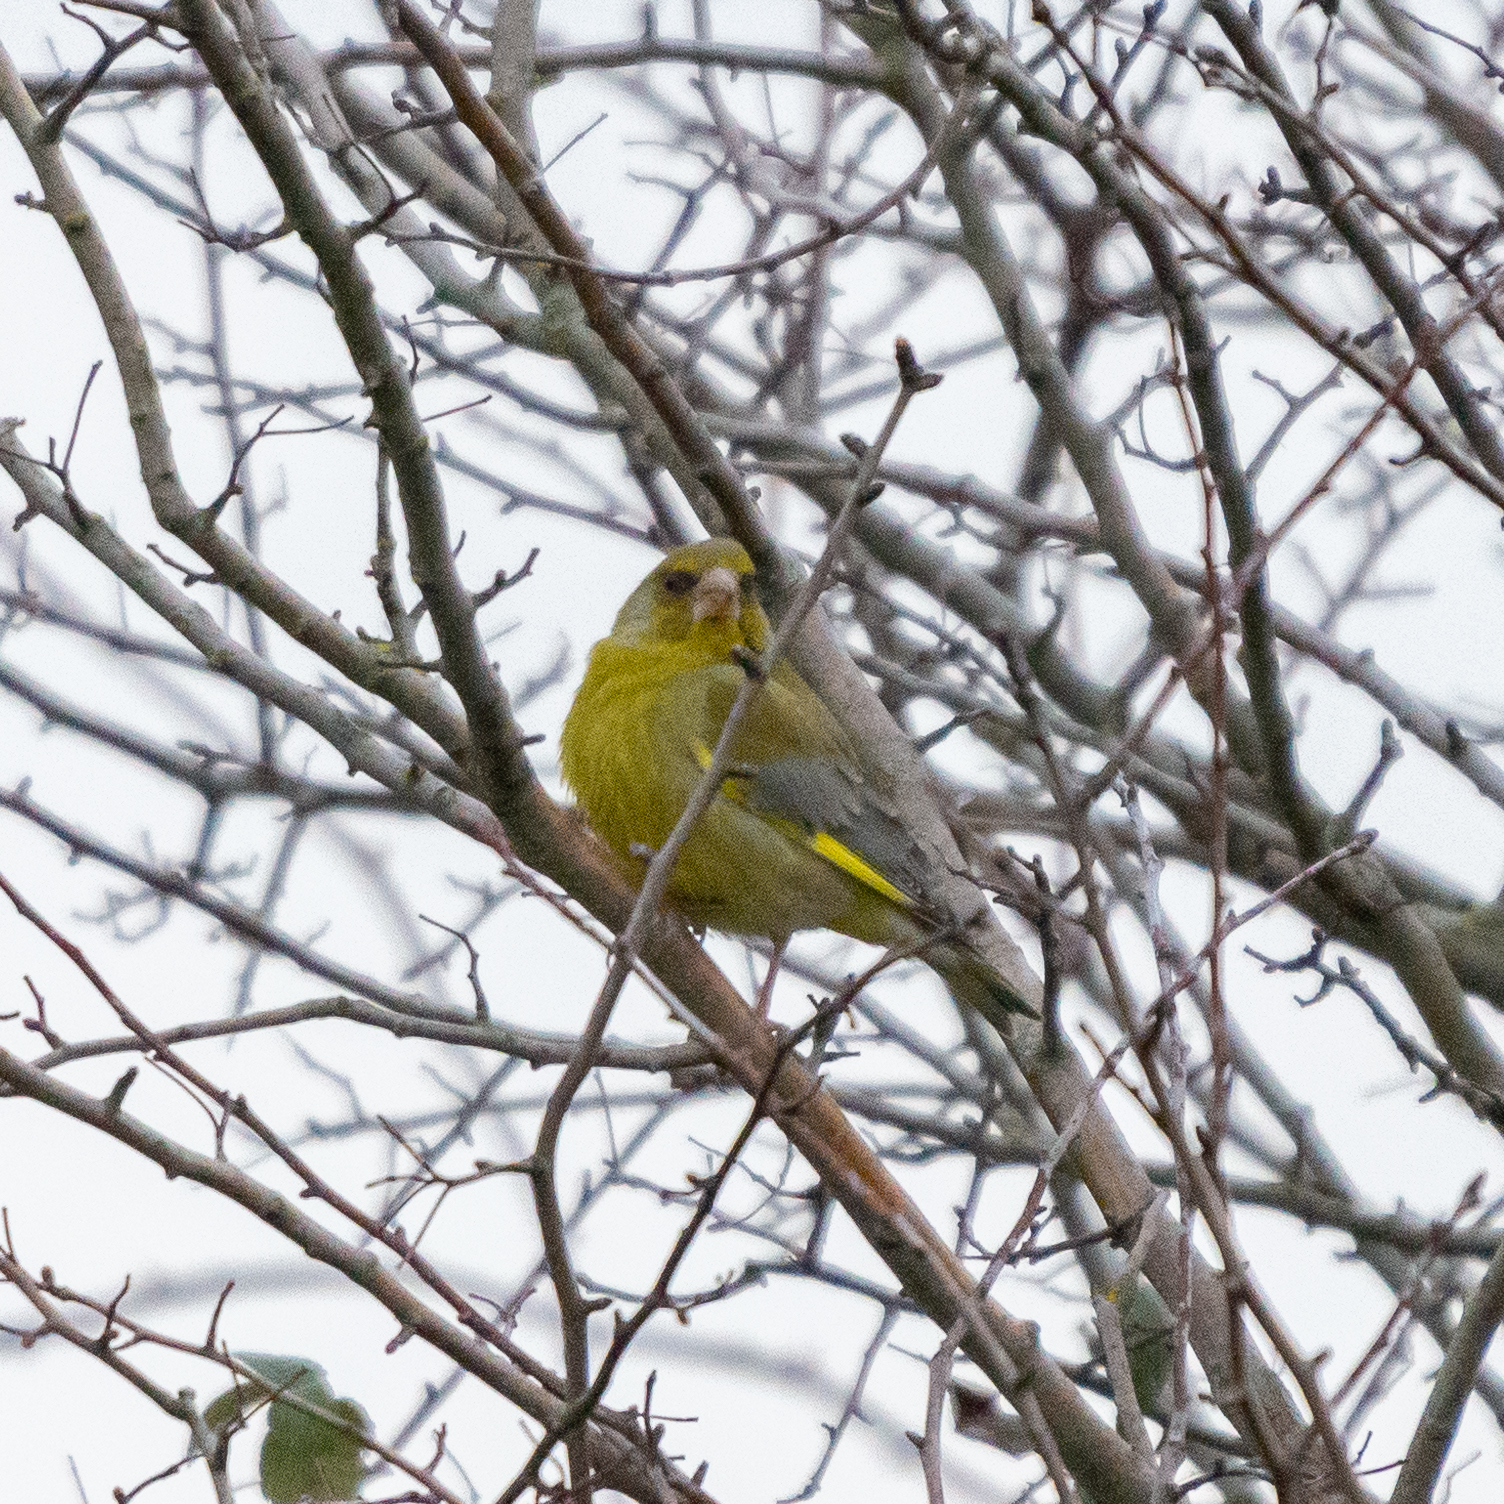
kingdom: Plantae
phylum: Tracheophyta
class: Liliopsida
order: Poales
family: Poaceae
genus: Chloris
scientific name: Chloris chloris
